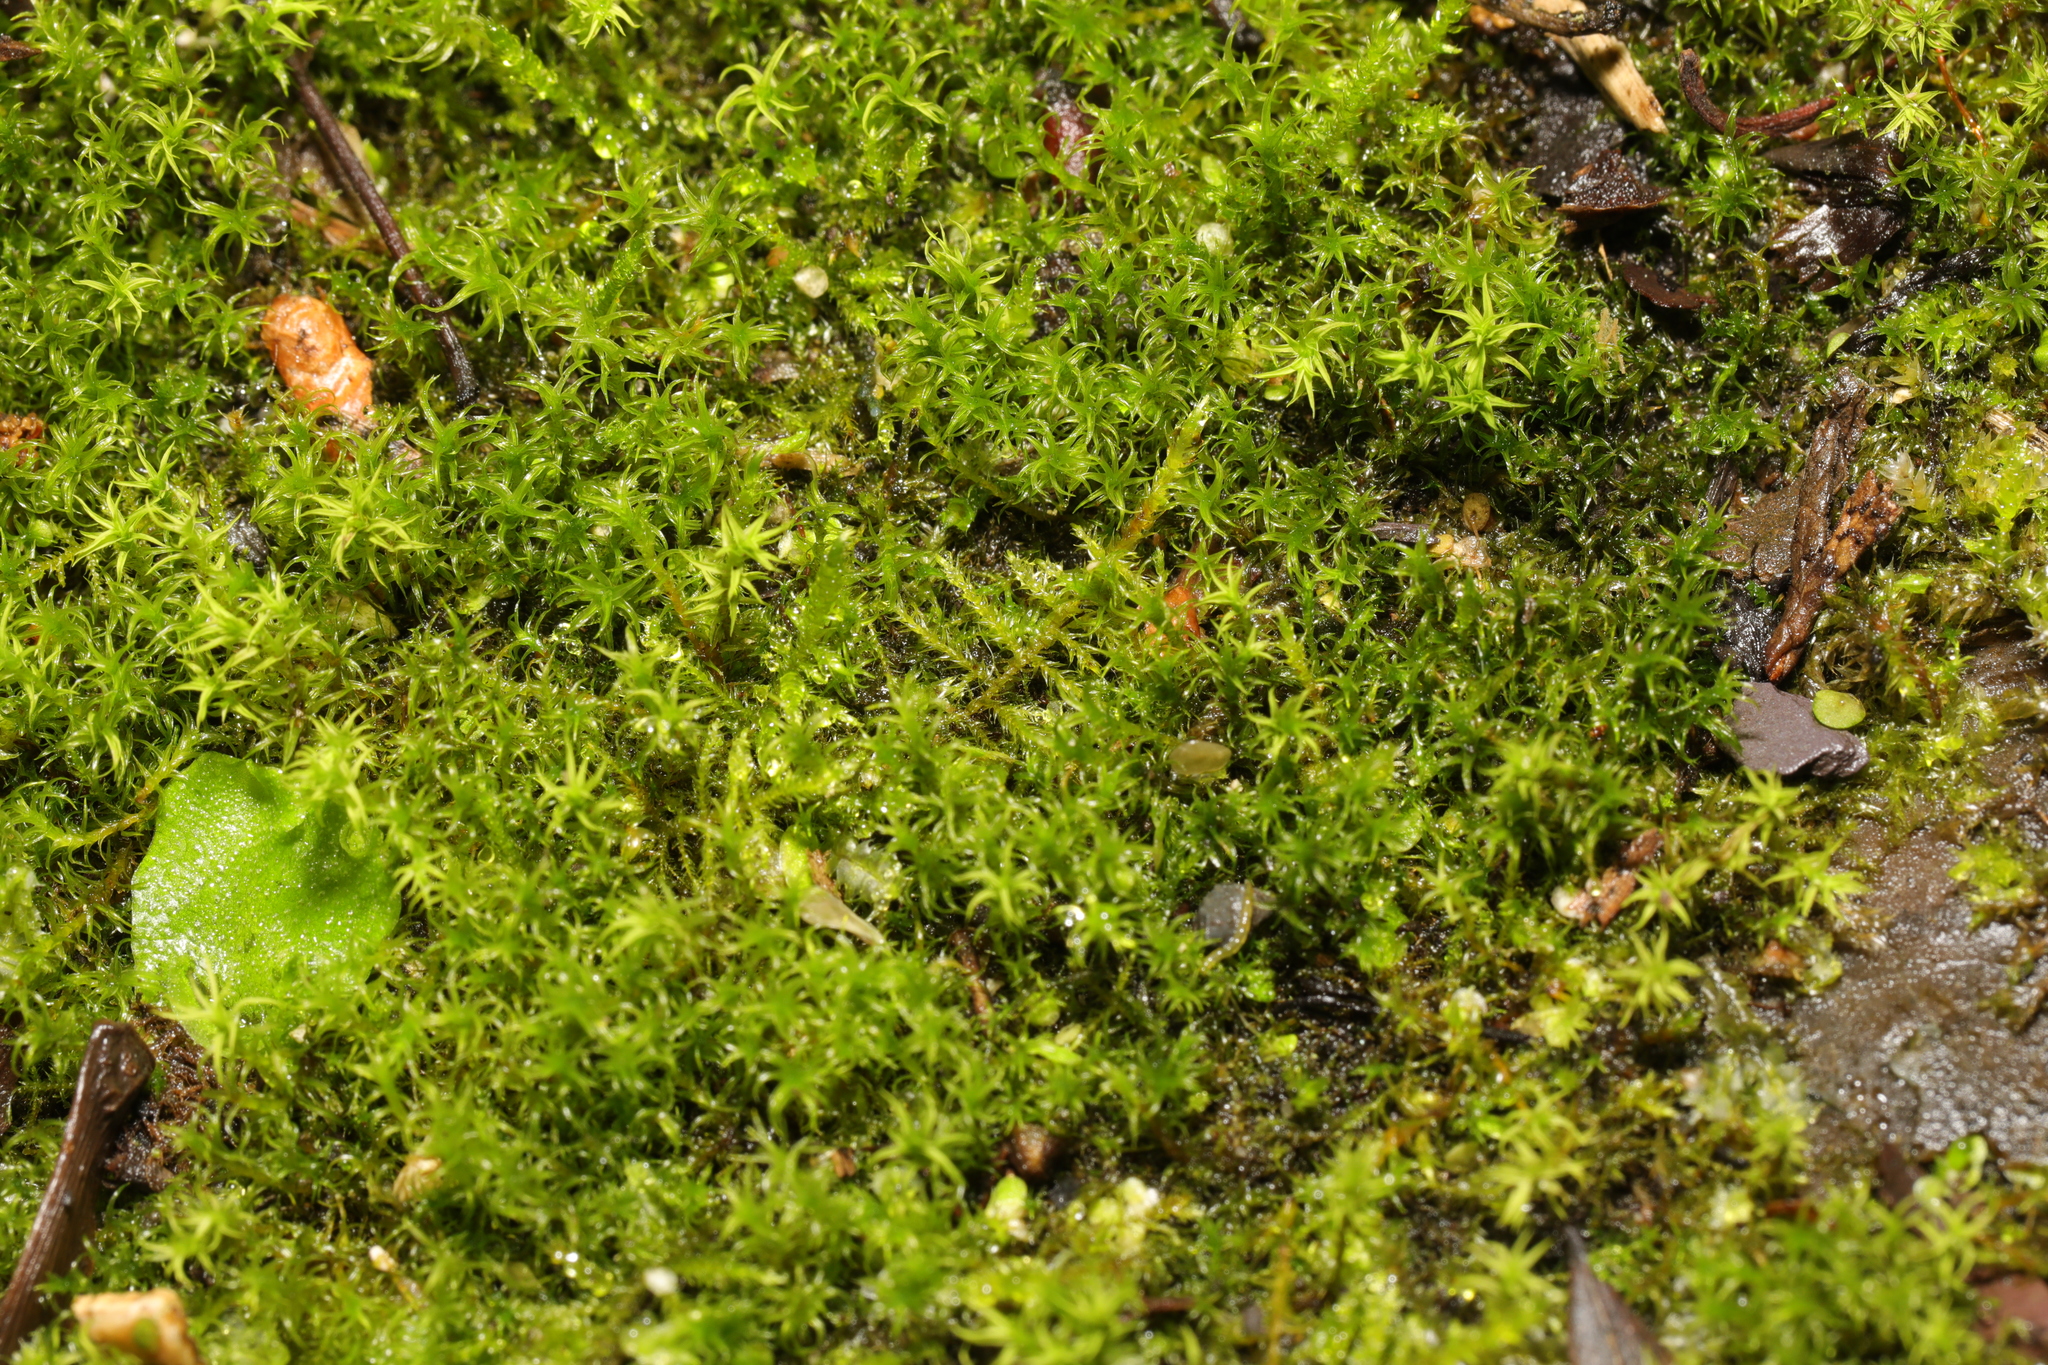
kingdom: Plantae
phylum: Bryophyta
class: Bryopsida
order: Pottiales
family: Pottiaceae
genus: Vinealobryum
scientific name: Vinealobryum insulanum
